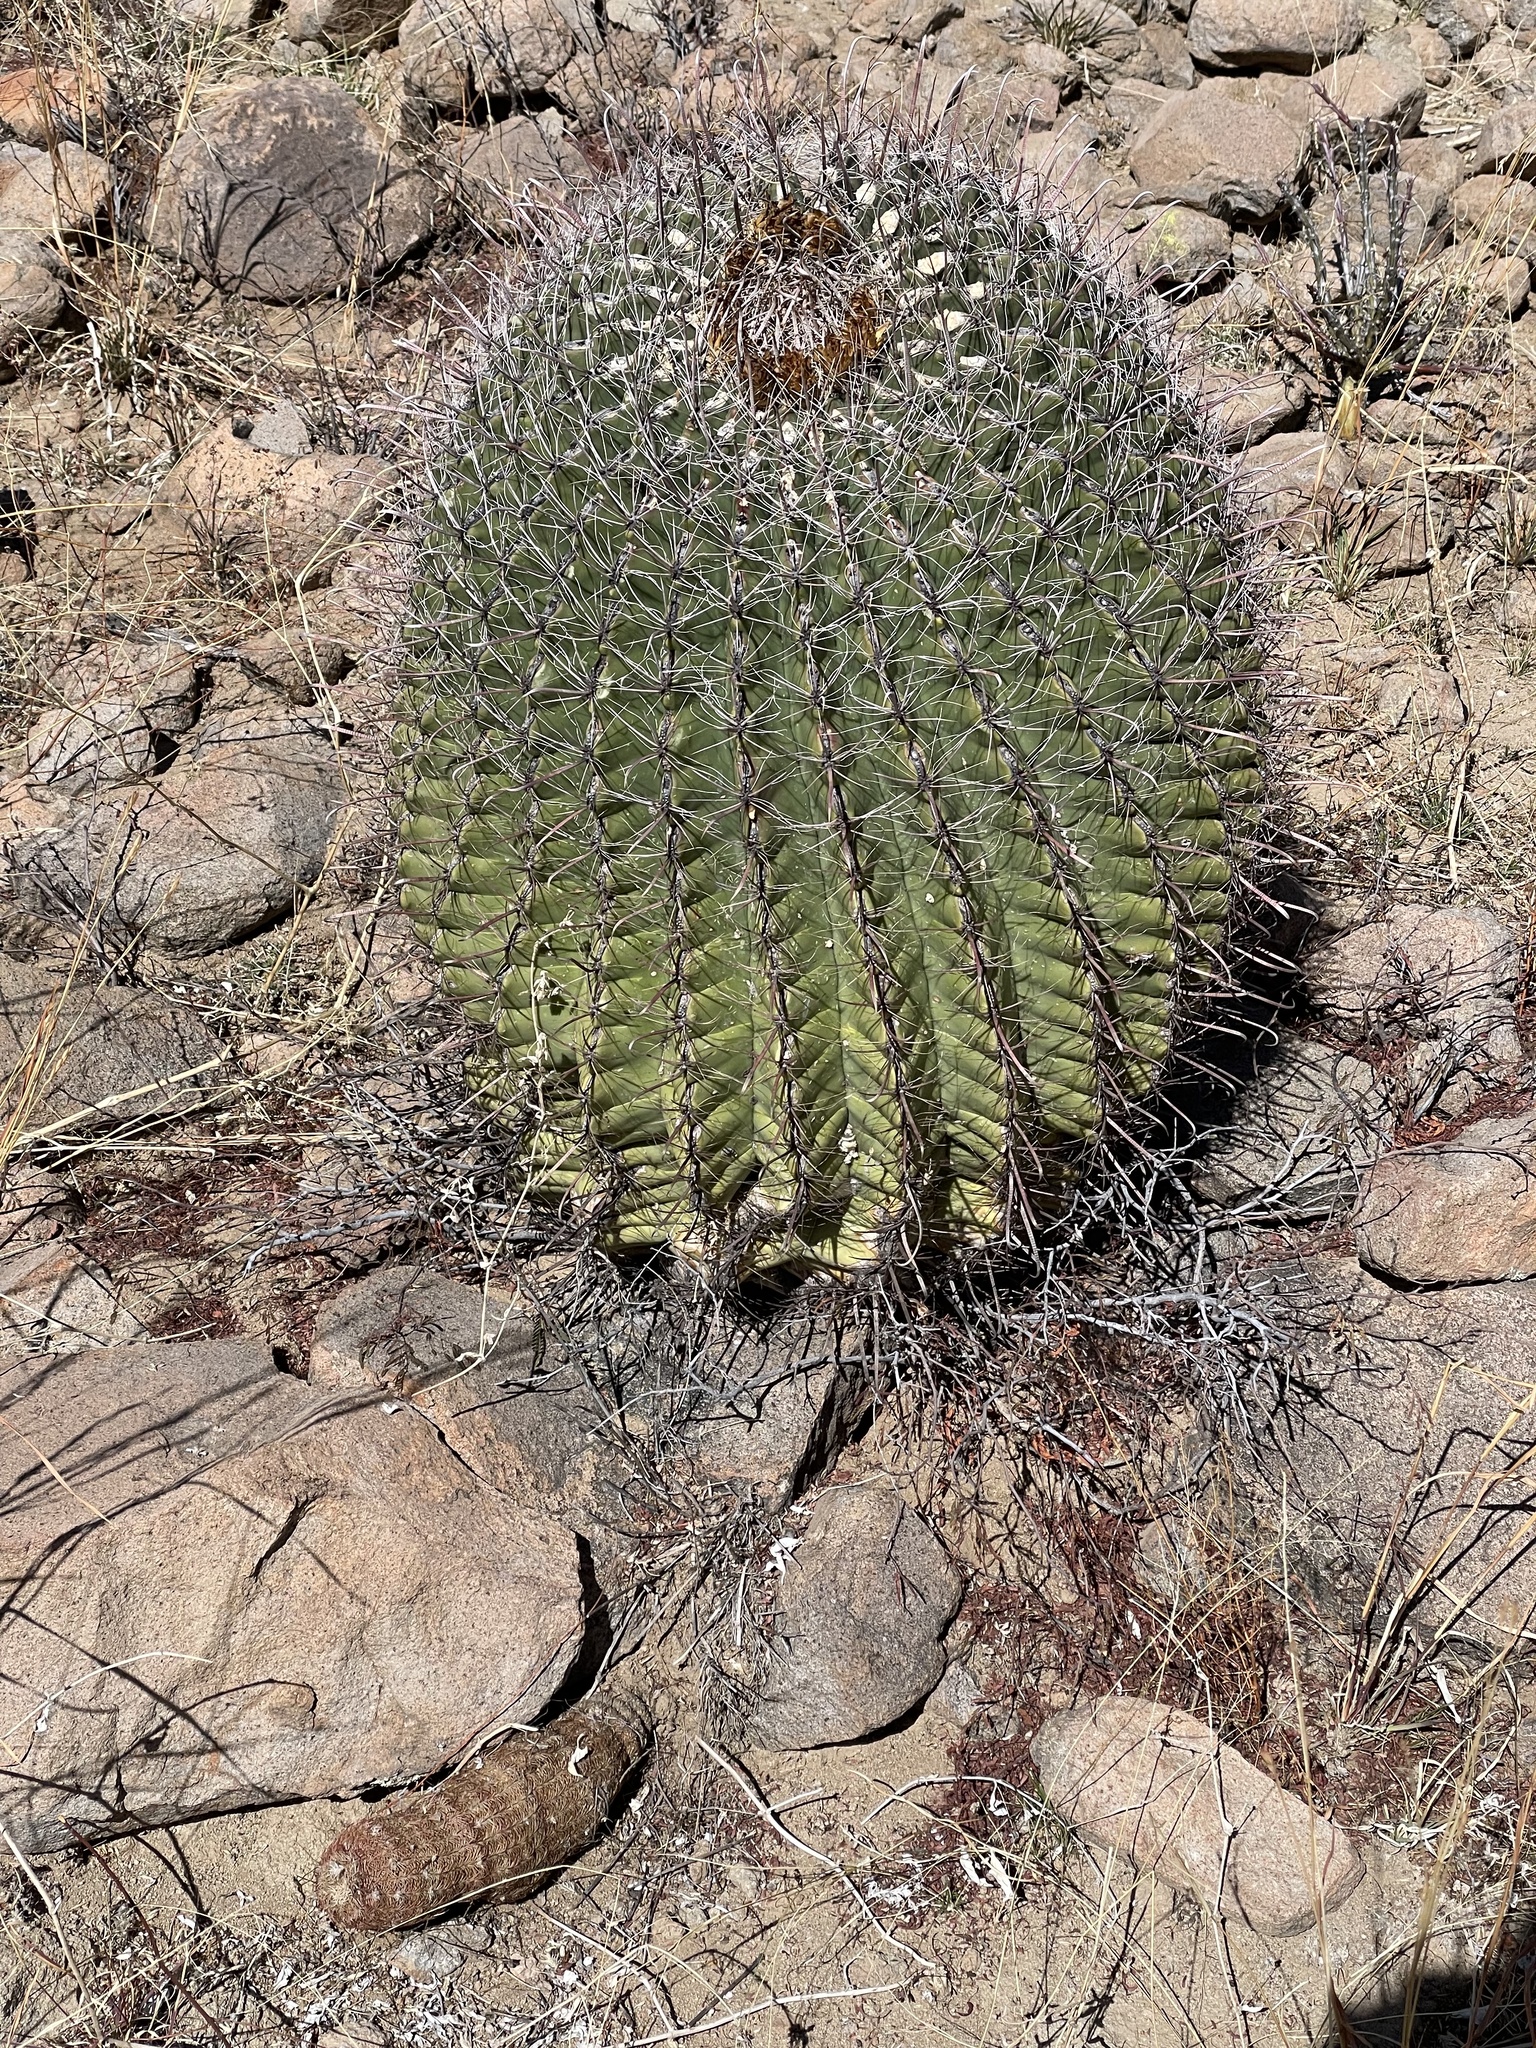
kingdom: Plantae
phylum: Tracheophyta
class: Magnoliopsida
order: Caryophyllales
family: Cactaceae
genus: Ferocactus
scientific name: Ferocactus wislizeni
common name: Candy barrel cactus
